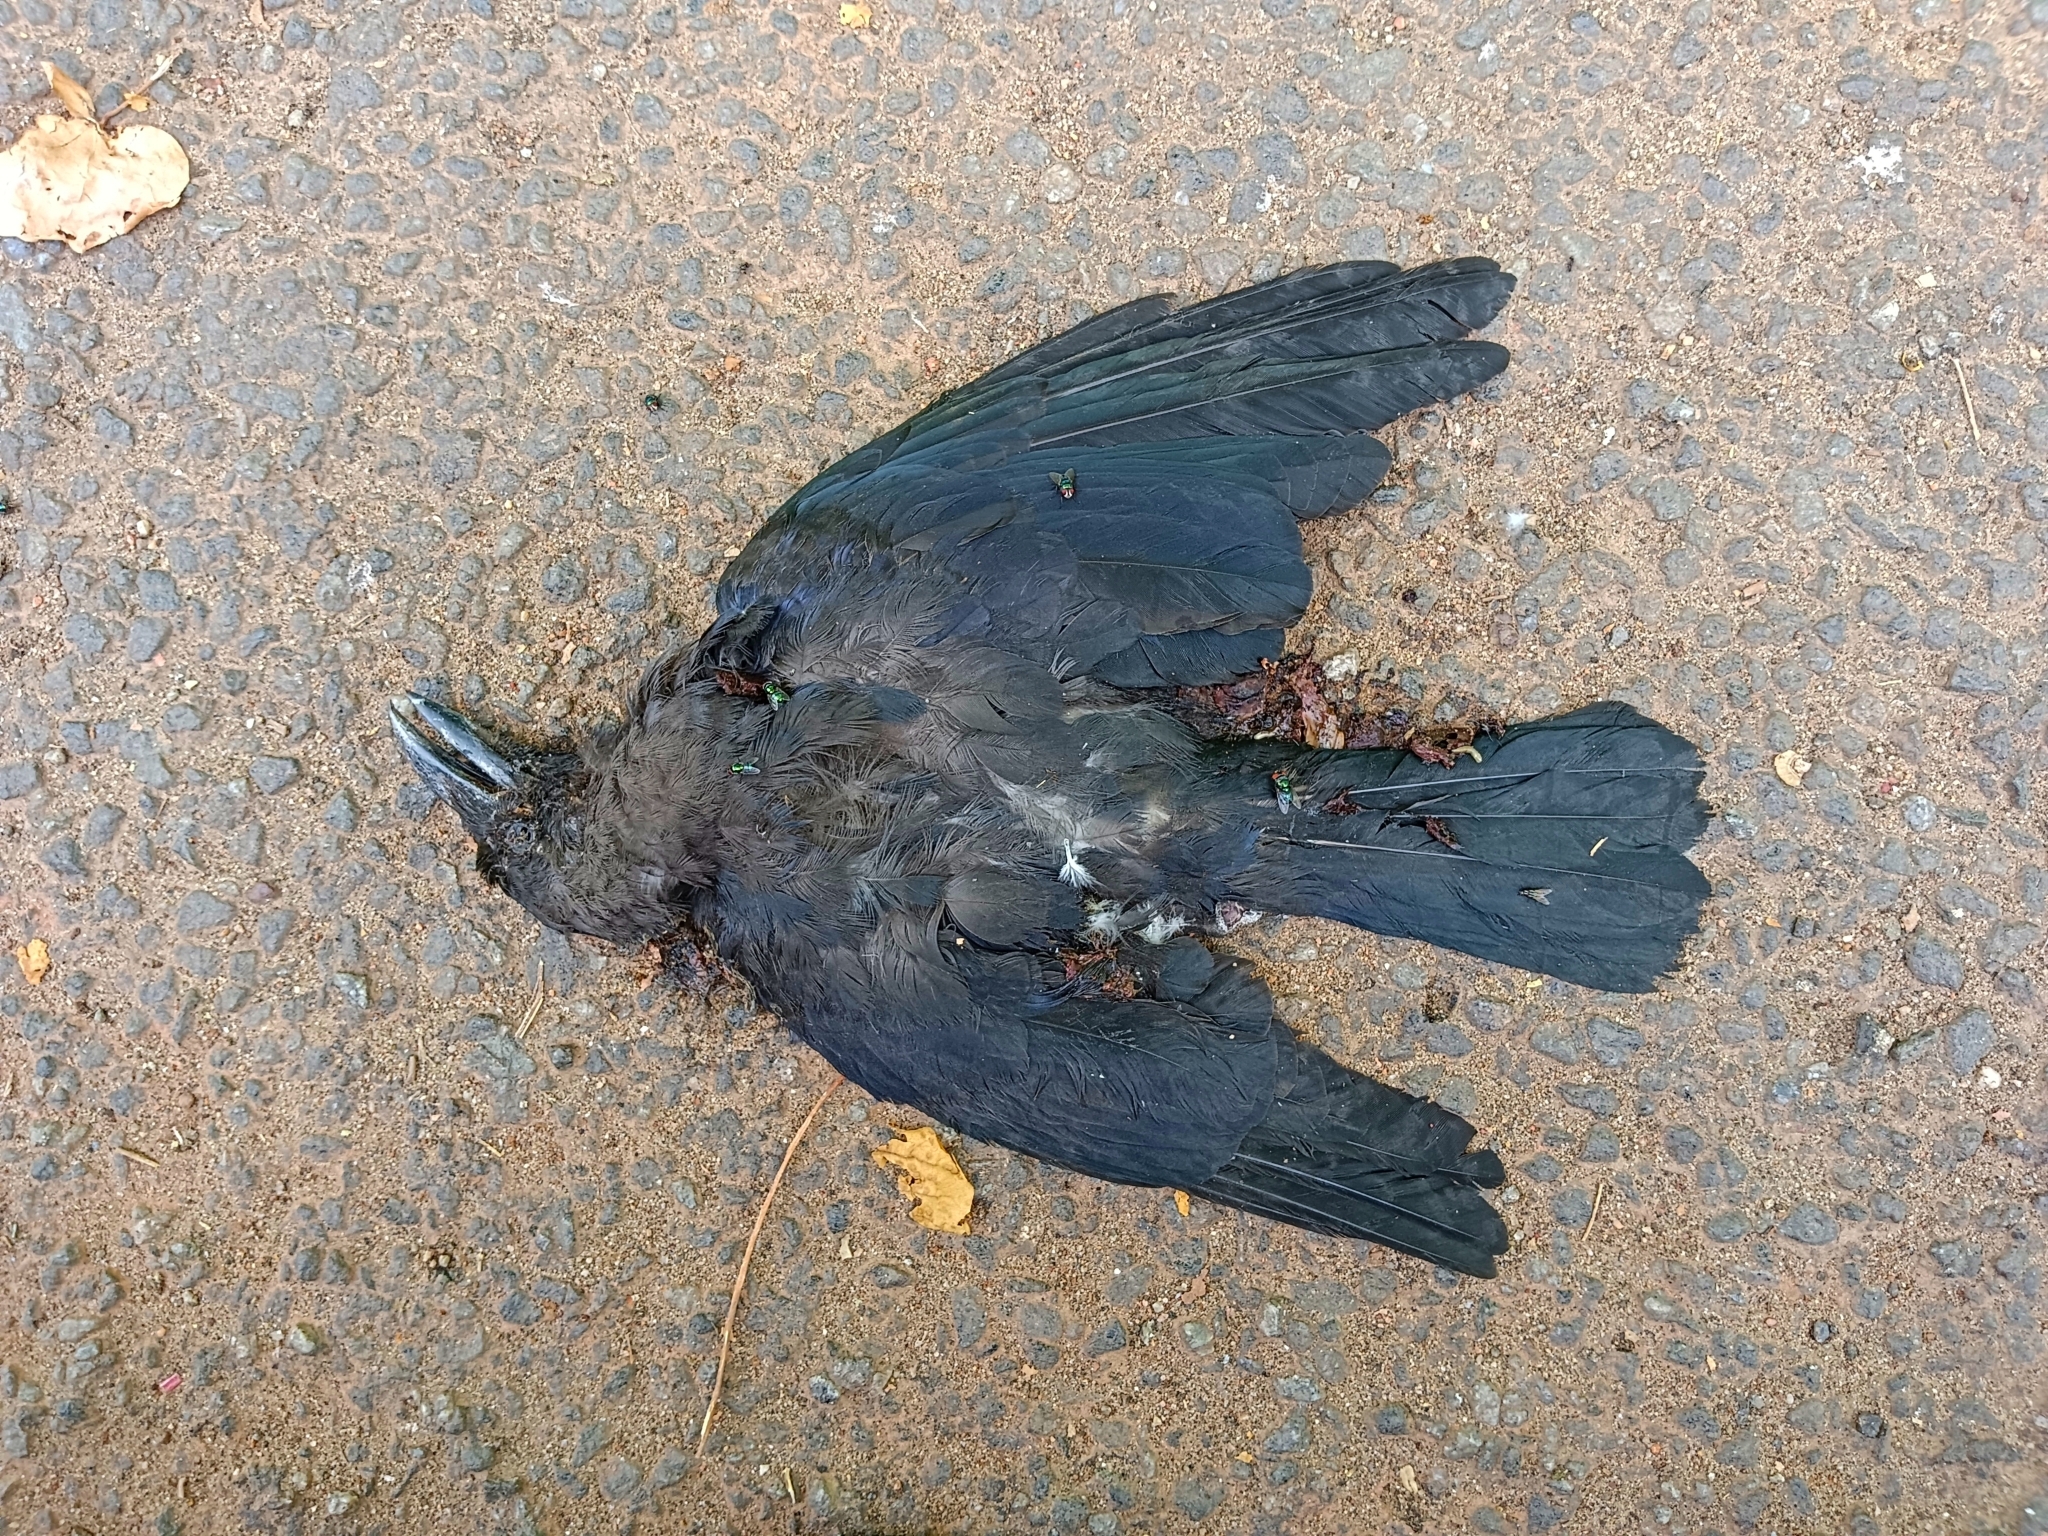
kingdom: Animalia
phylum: Chordata
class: Aves
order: Passeriformes
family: Corvidae
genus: Corvus
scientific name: Corvus splendens
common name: House crow
